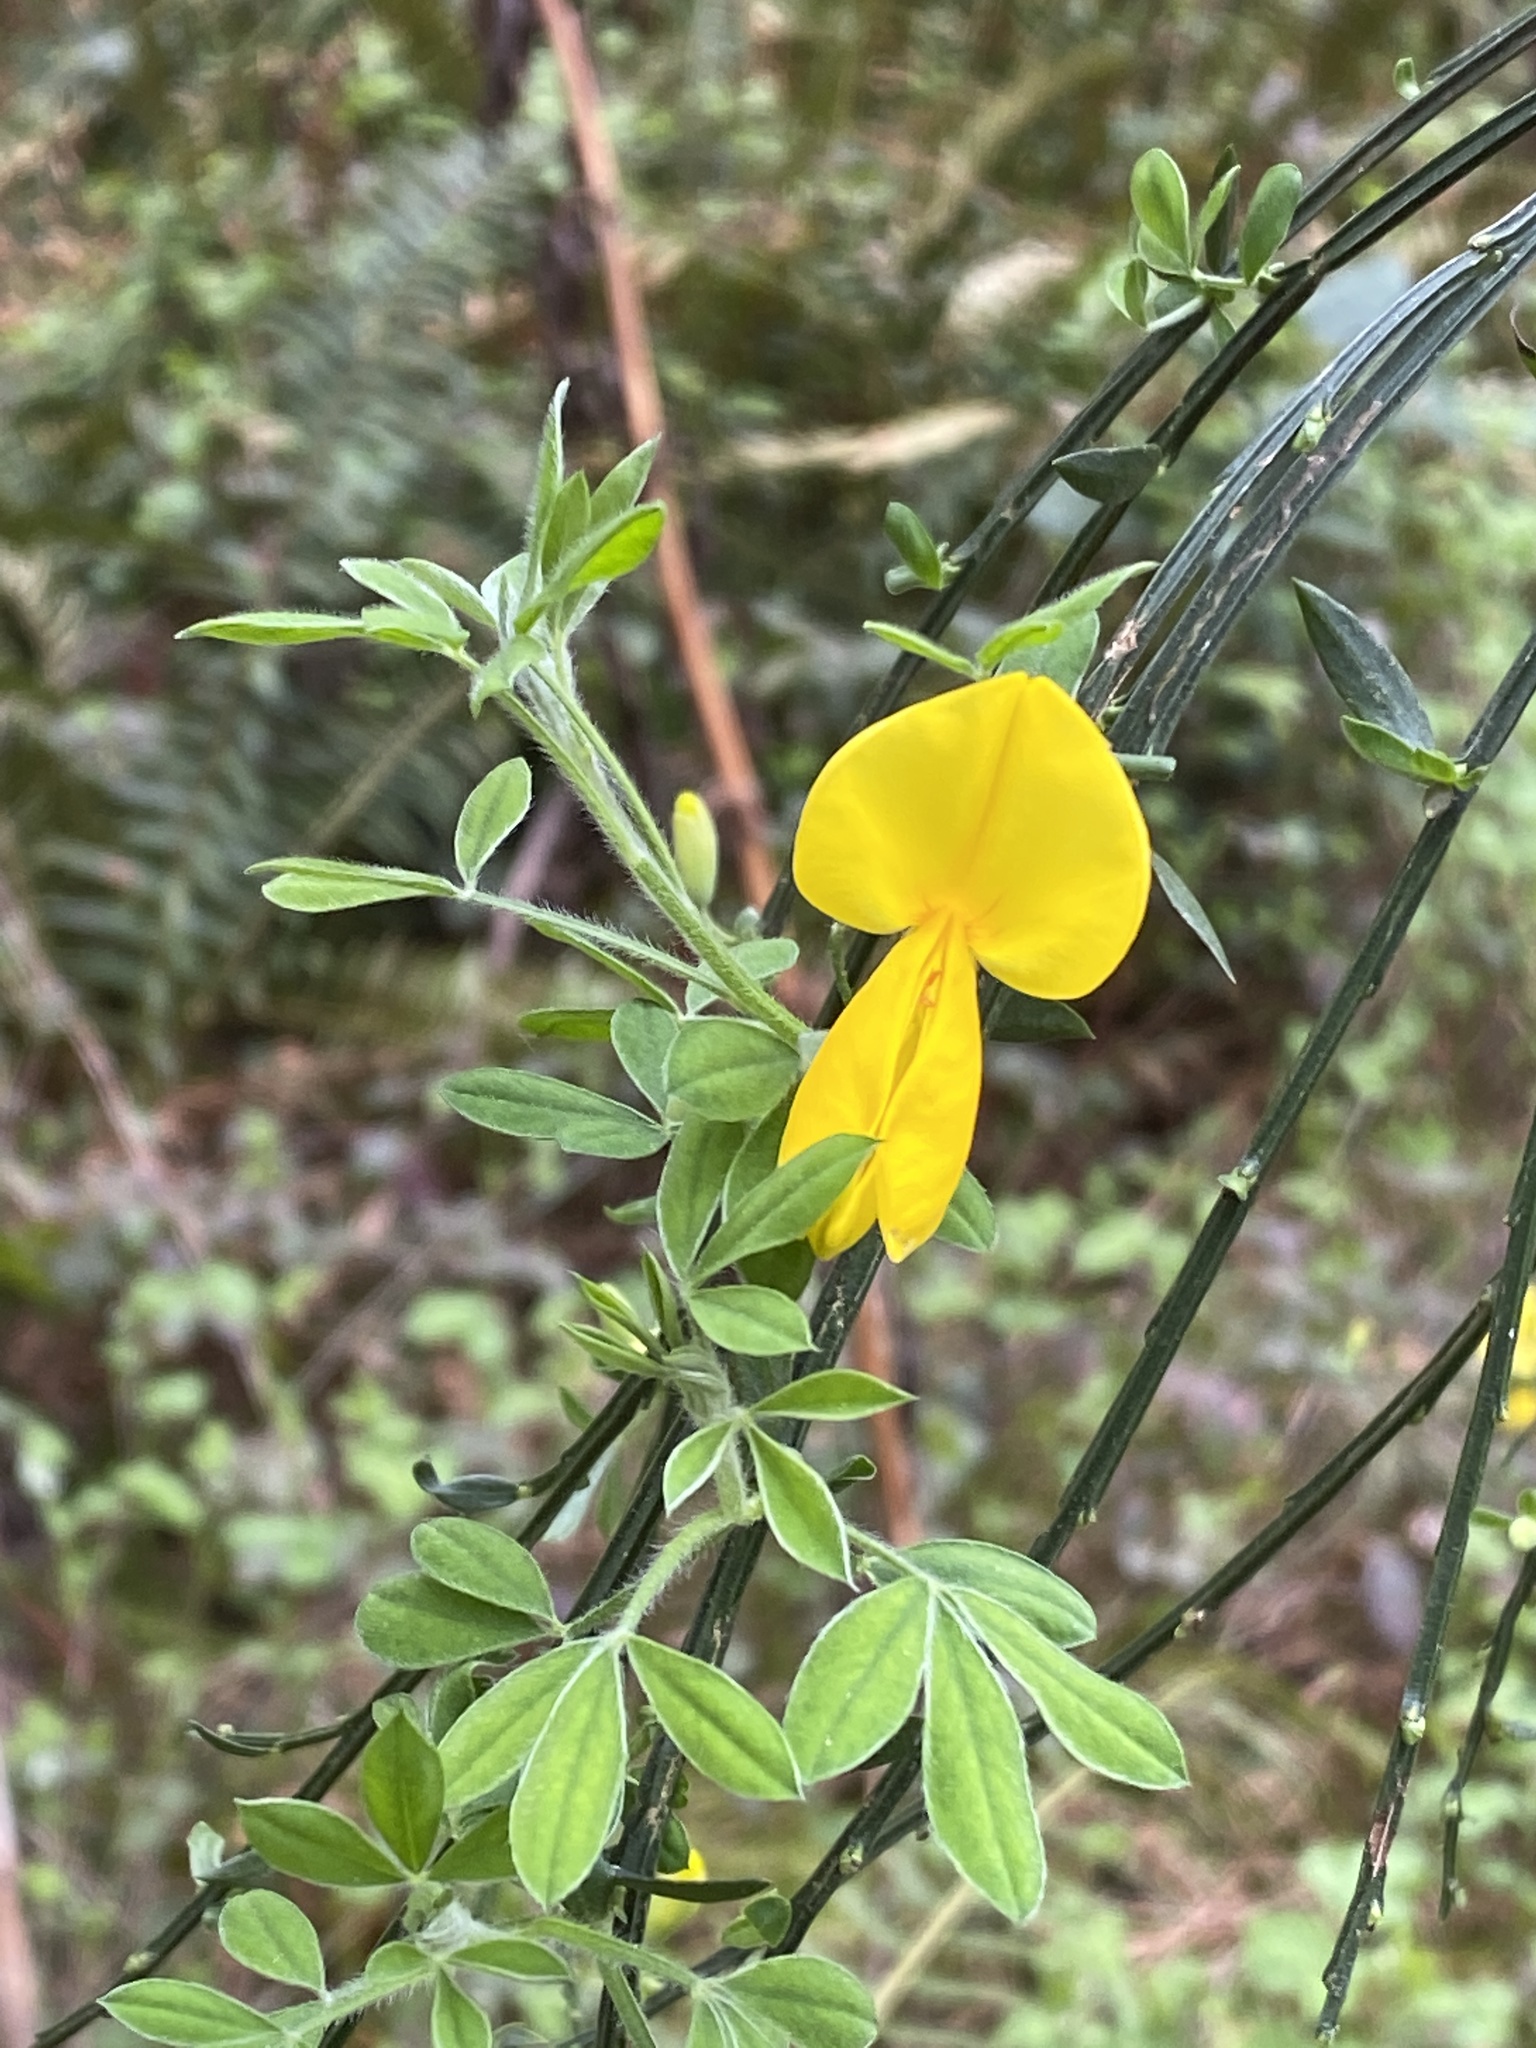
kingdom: Plantae
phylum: Tracheophyta
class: Magnoliopsida
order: Fabales
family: Fabaceae
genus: Cytisus
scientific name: Cytisus scoparius
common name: Scotch broom
